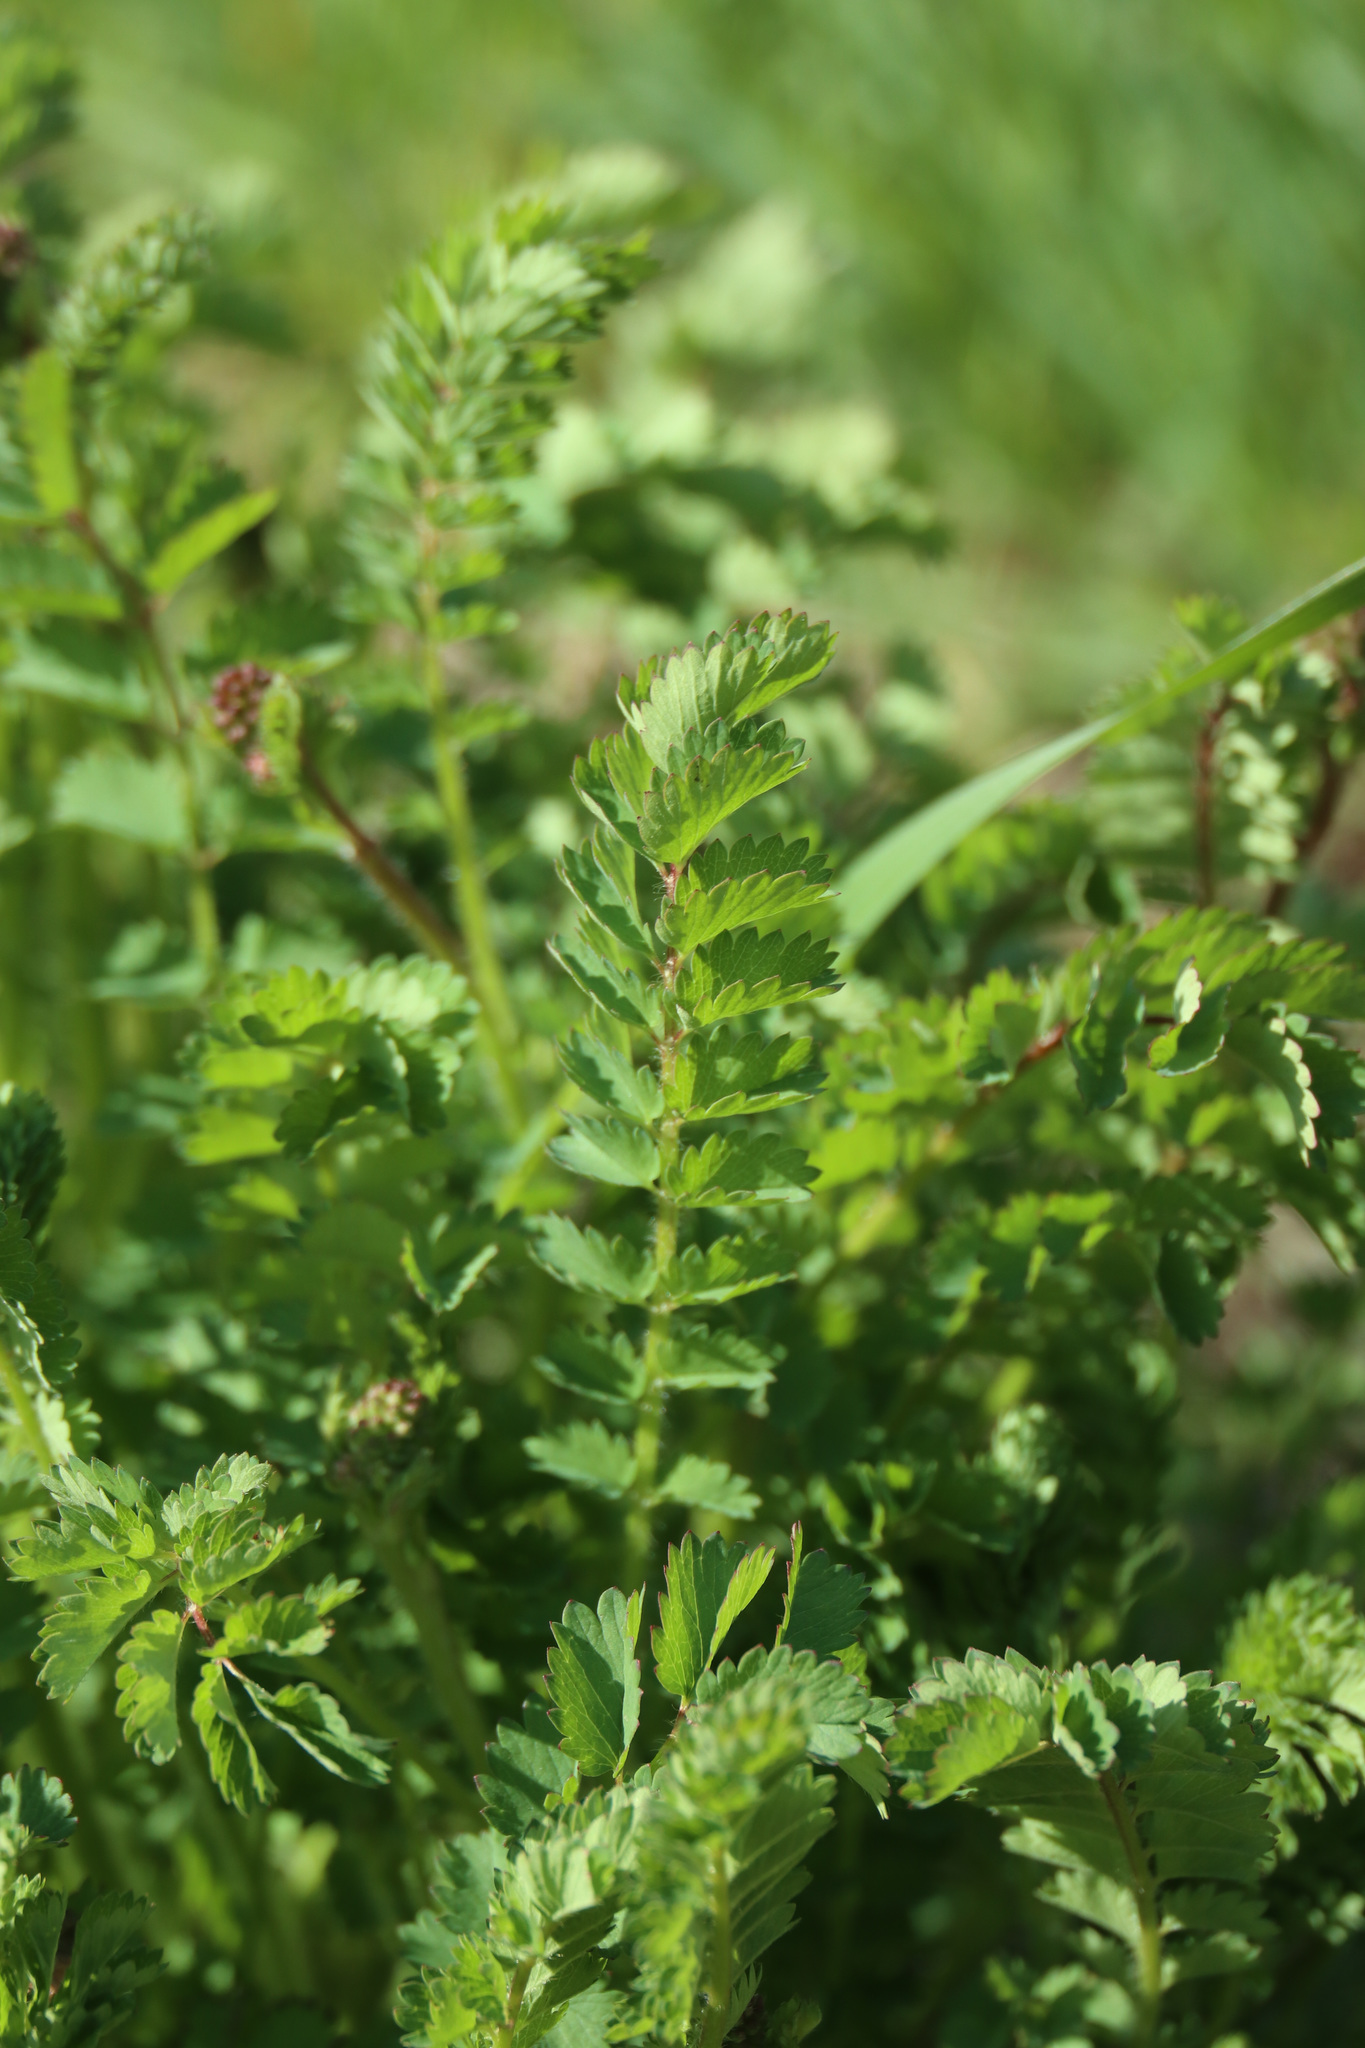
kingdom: Plantae
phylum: Tracheophyta
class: Magnoliopsida
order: Rosales
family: Rosaceae
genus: Poterium
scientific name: Poterium sanguisorba
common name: Salad burnet
